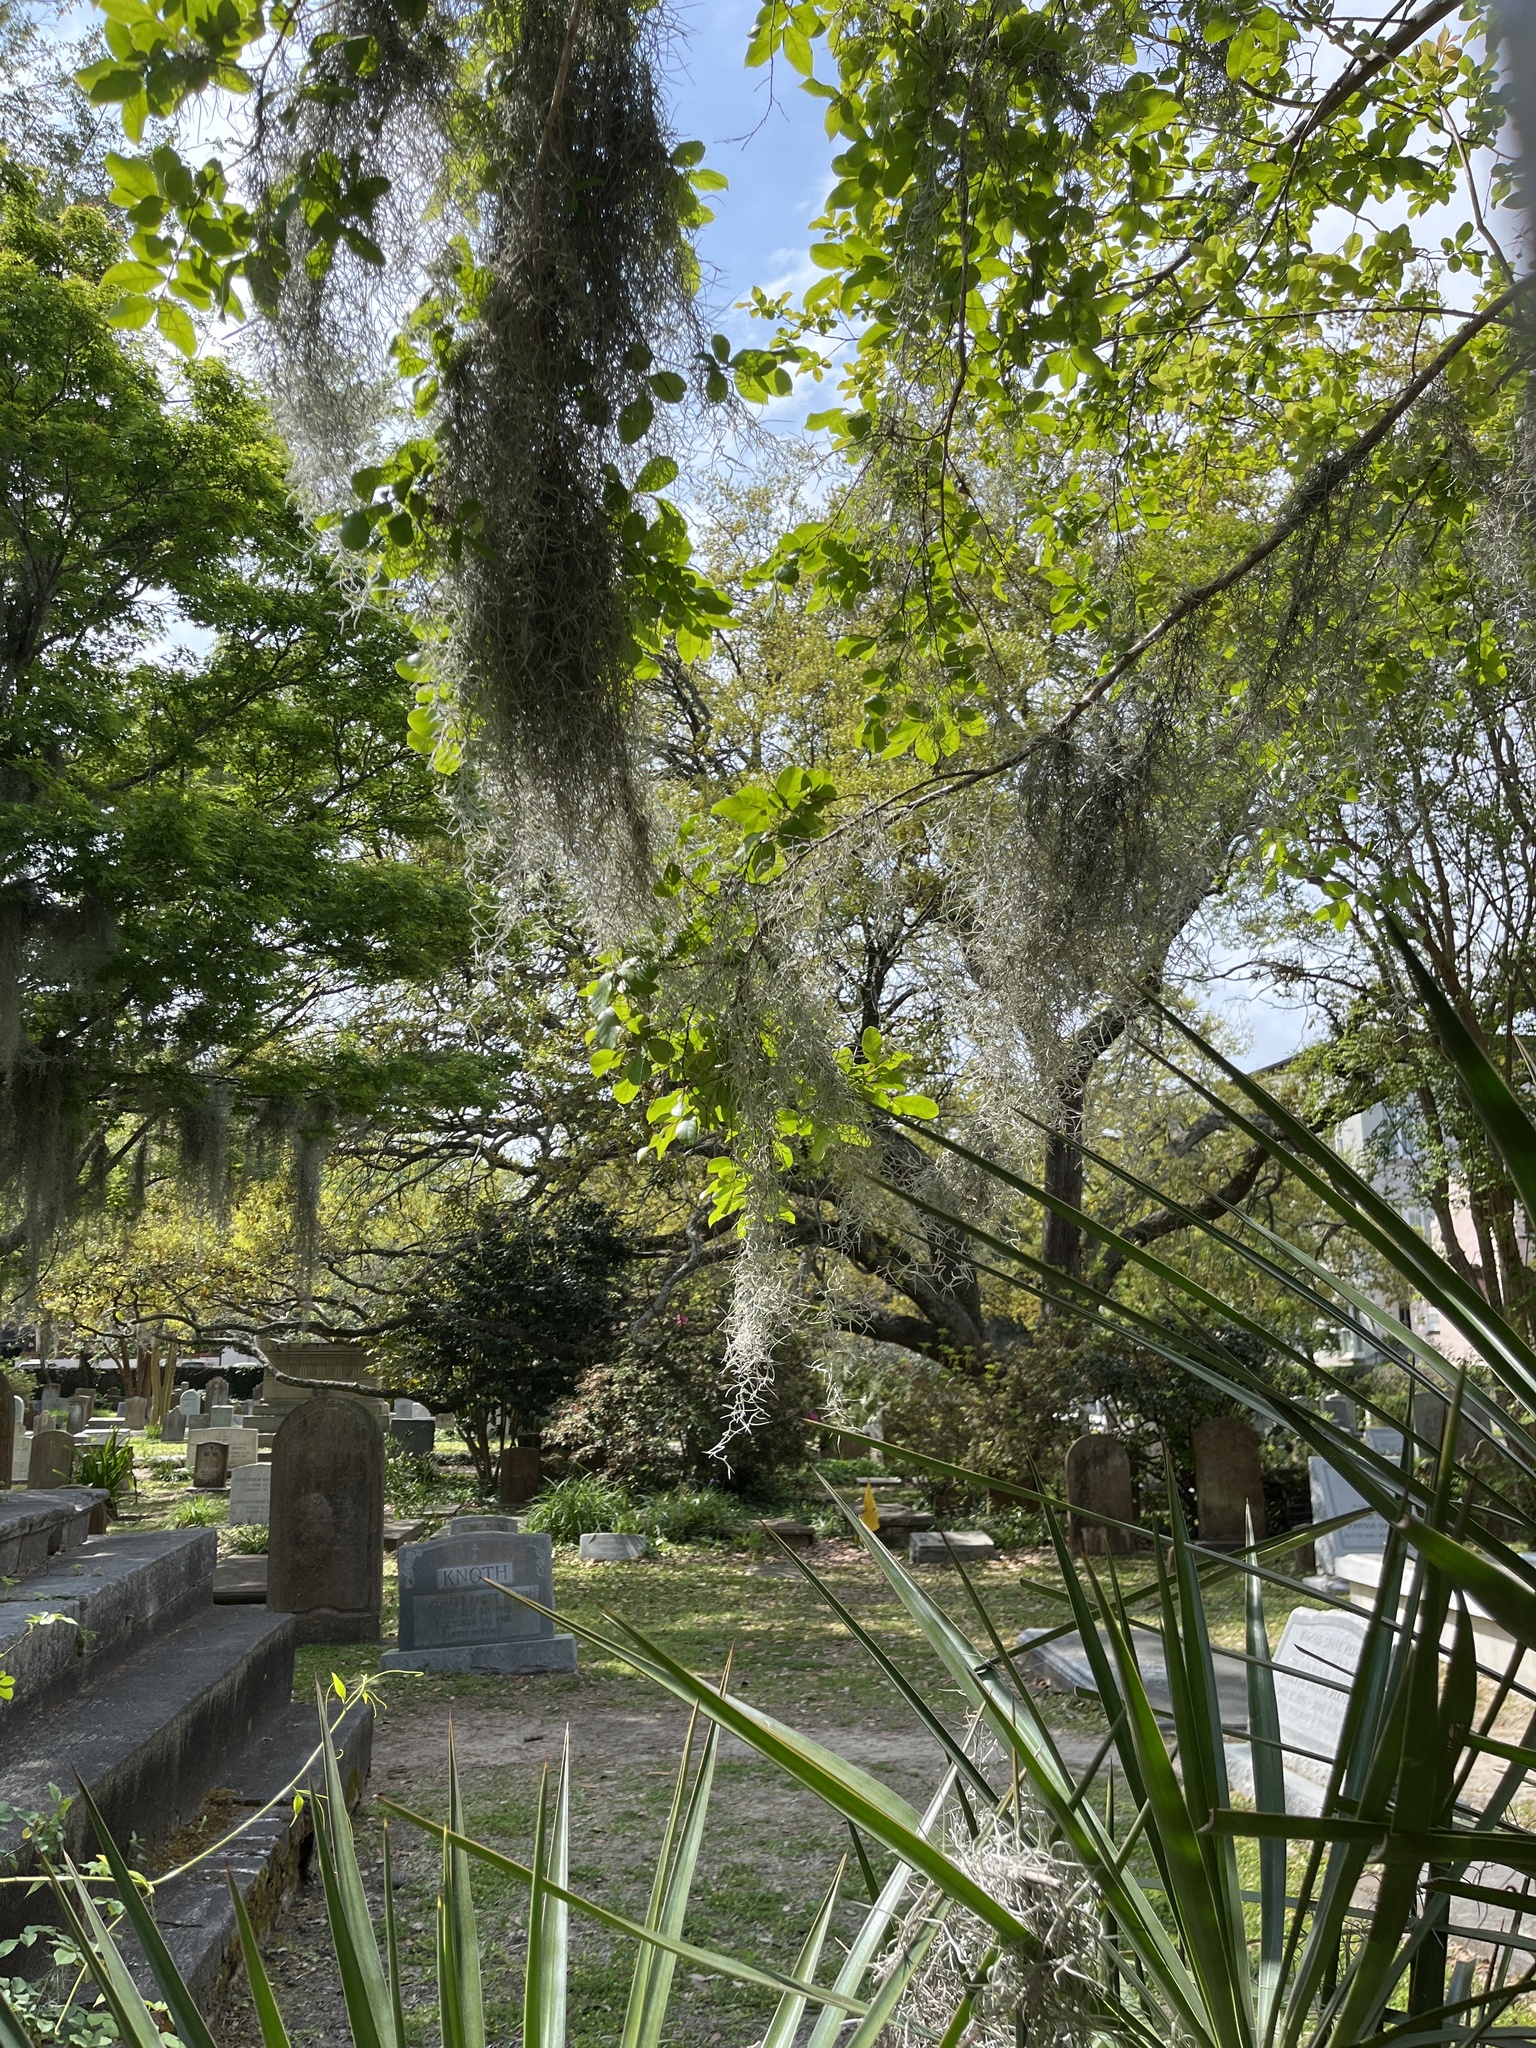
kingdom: Plantae
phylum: Tracheophyta
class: Liliopsida
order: Poales
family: Bromeliaceae
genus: Tillandsia
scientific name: Tillandsia usneoides
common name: Spanish moss
